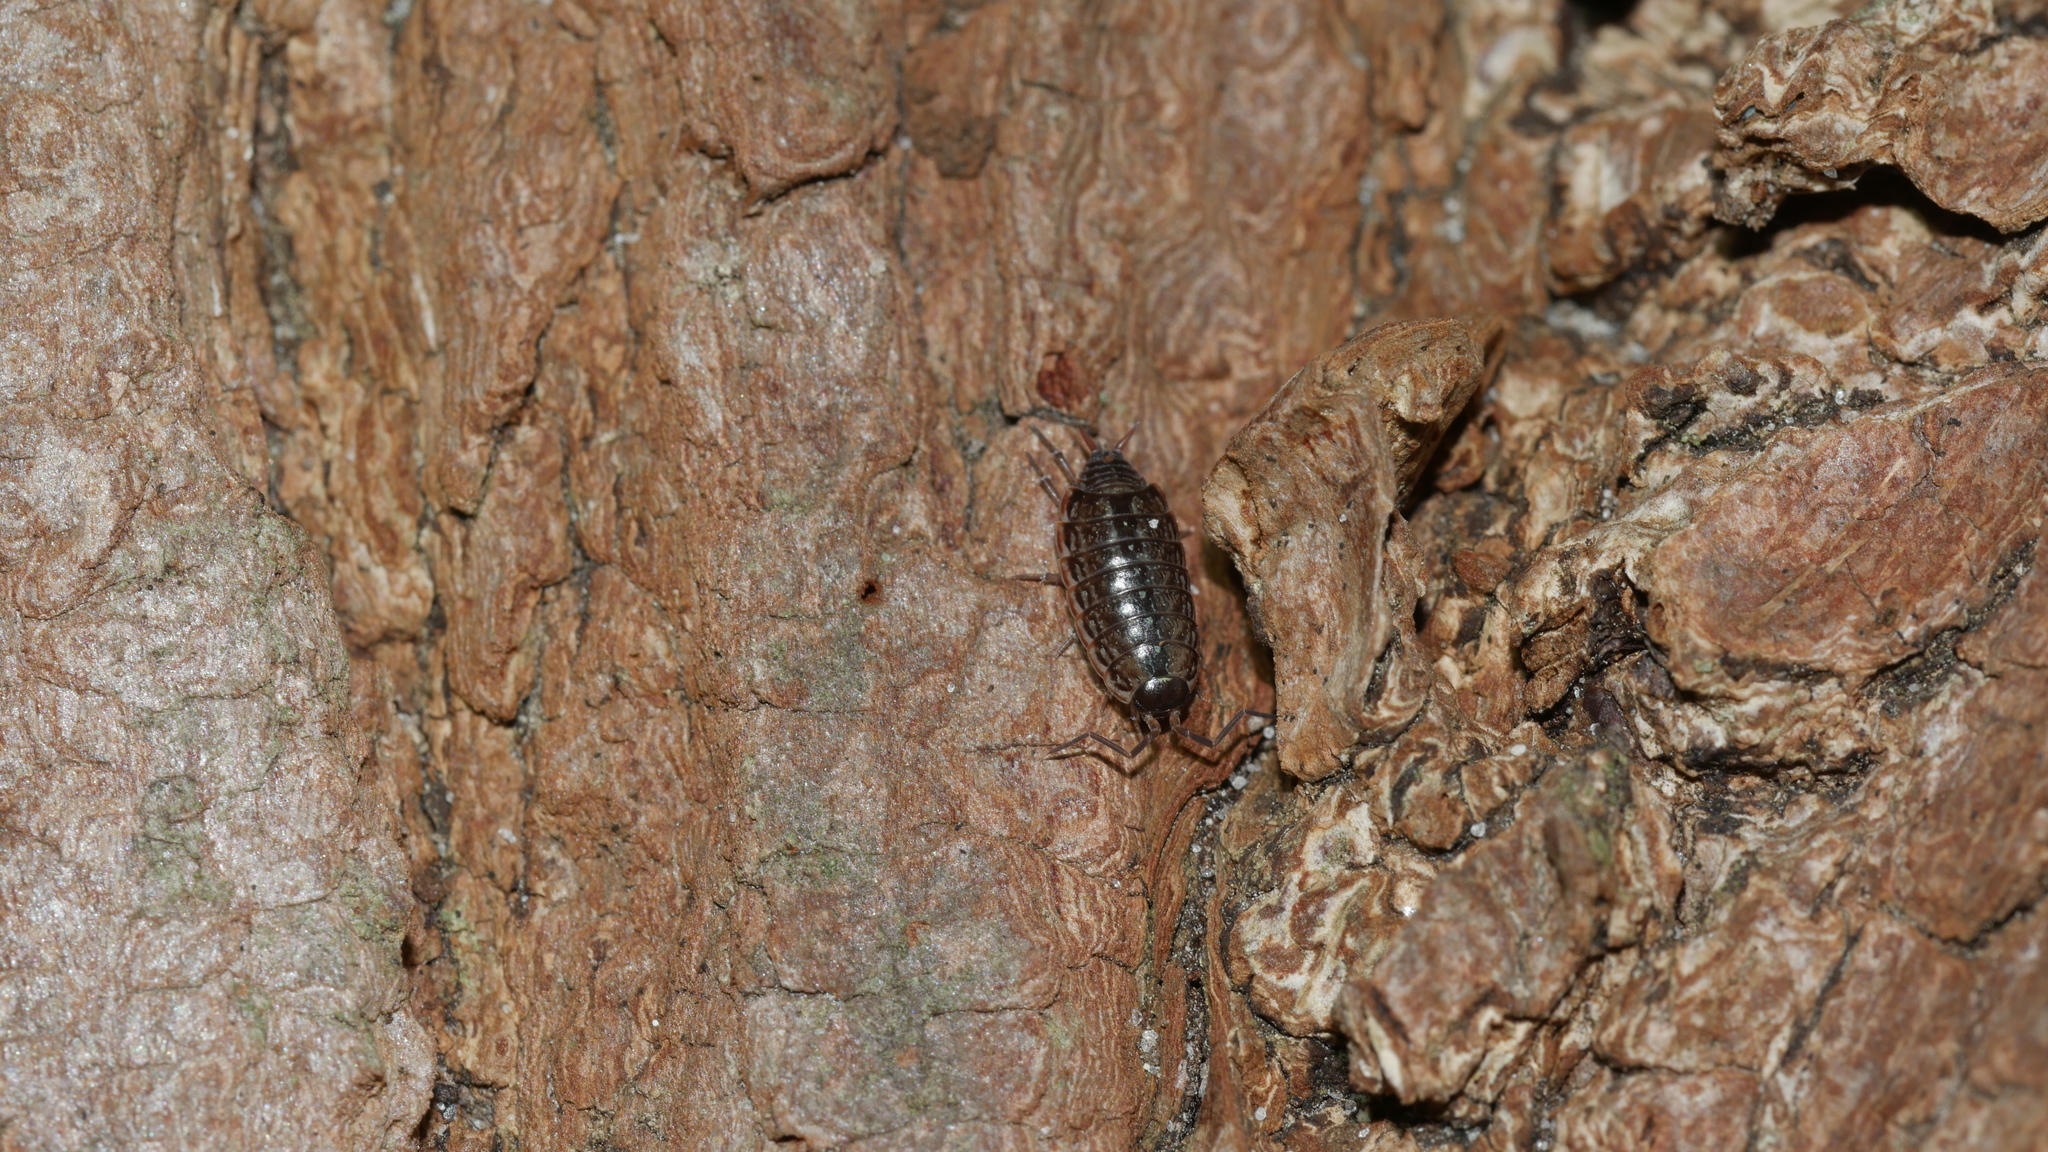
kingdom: Animalia
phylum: Arthropoda
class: Malacostraca
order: Isopoda
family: Philosciidae
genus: Philoscia
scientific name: Philoscia muscorum
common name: Common striped woodlouse
